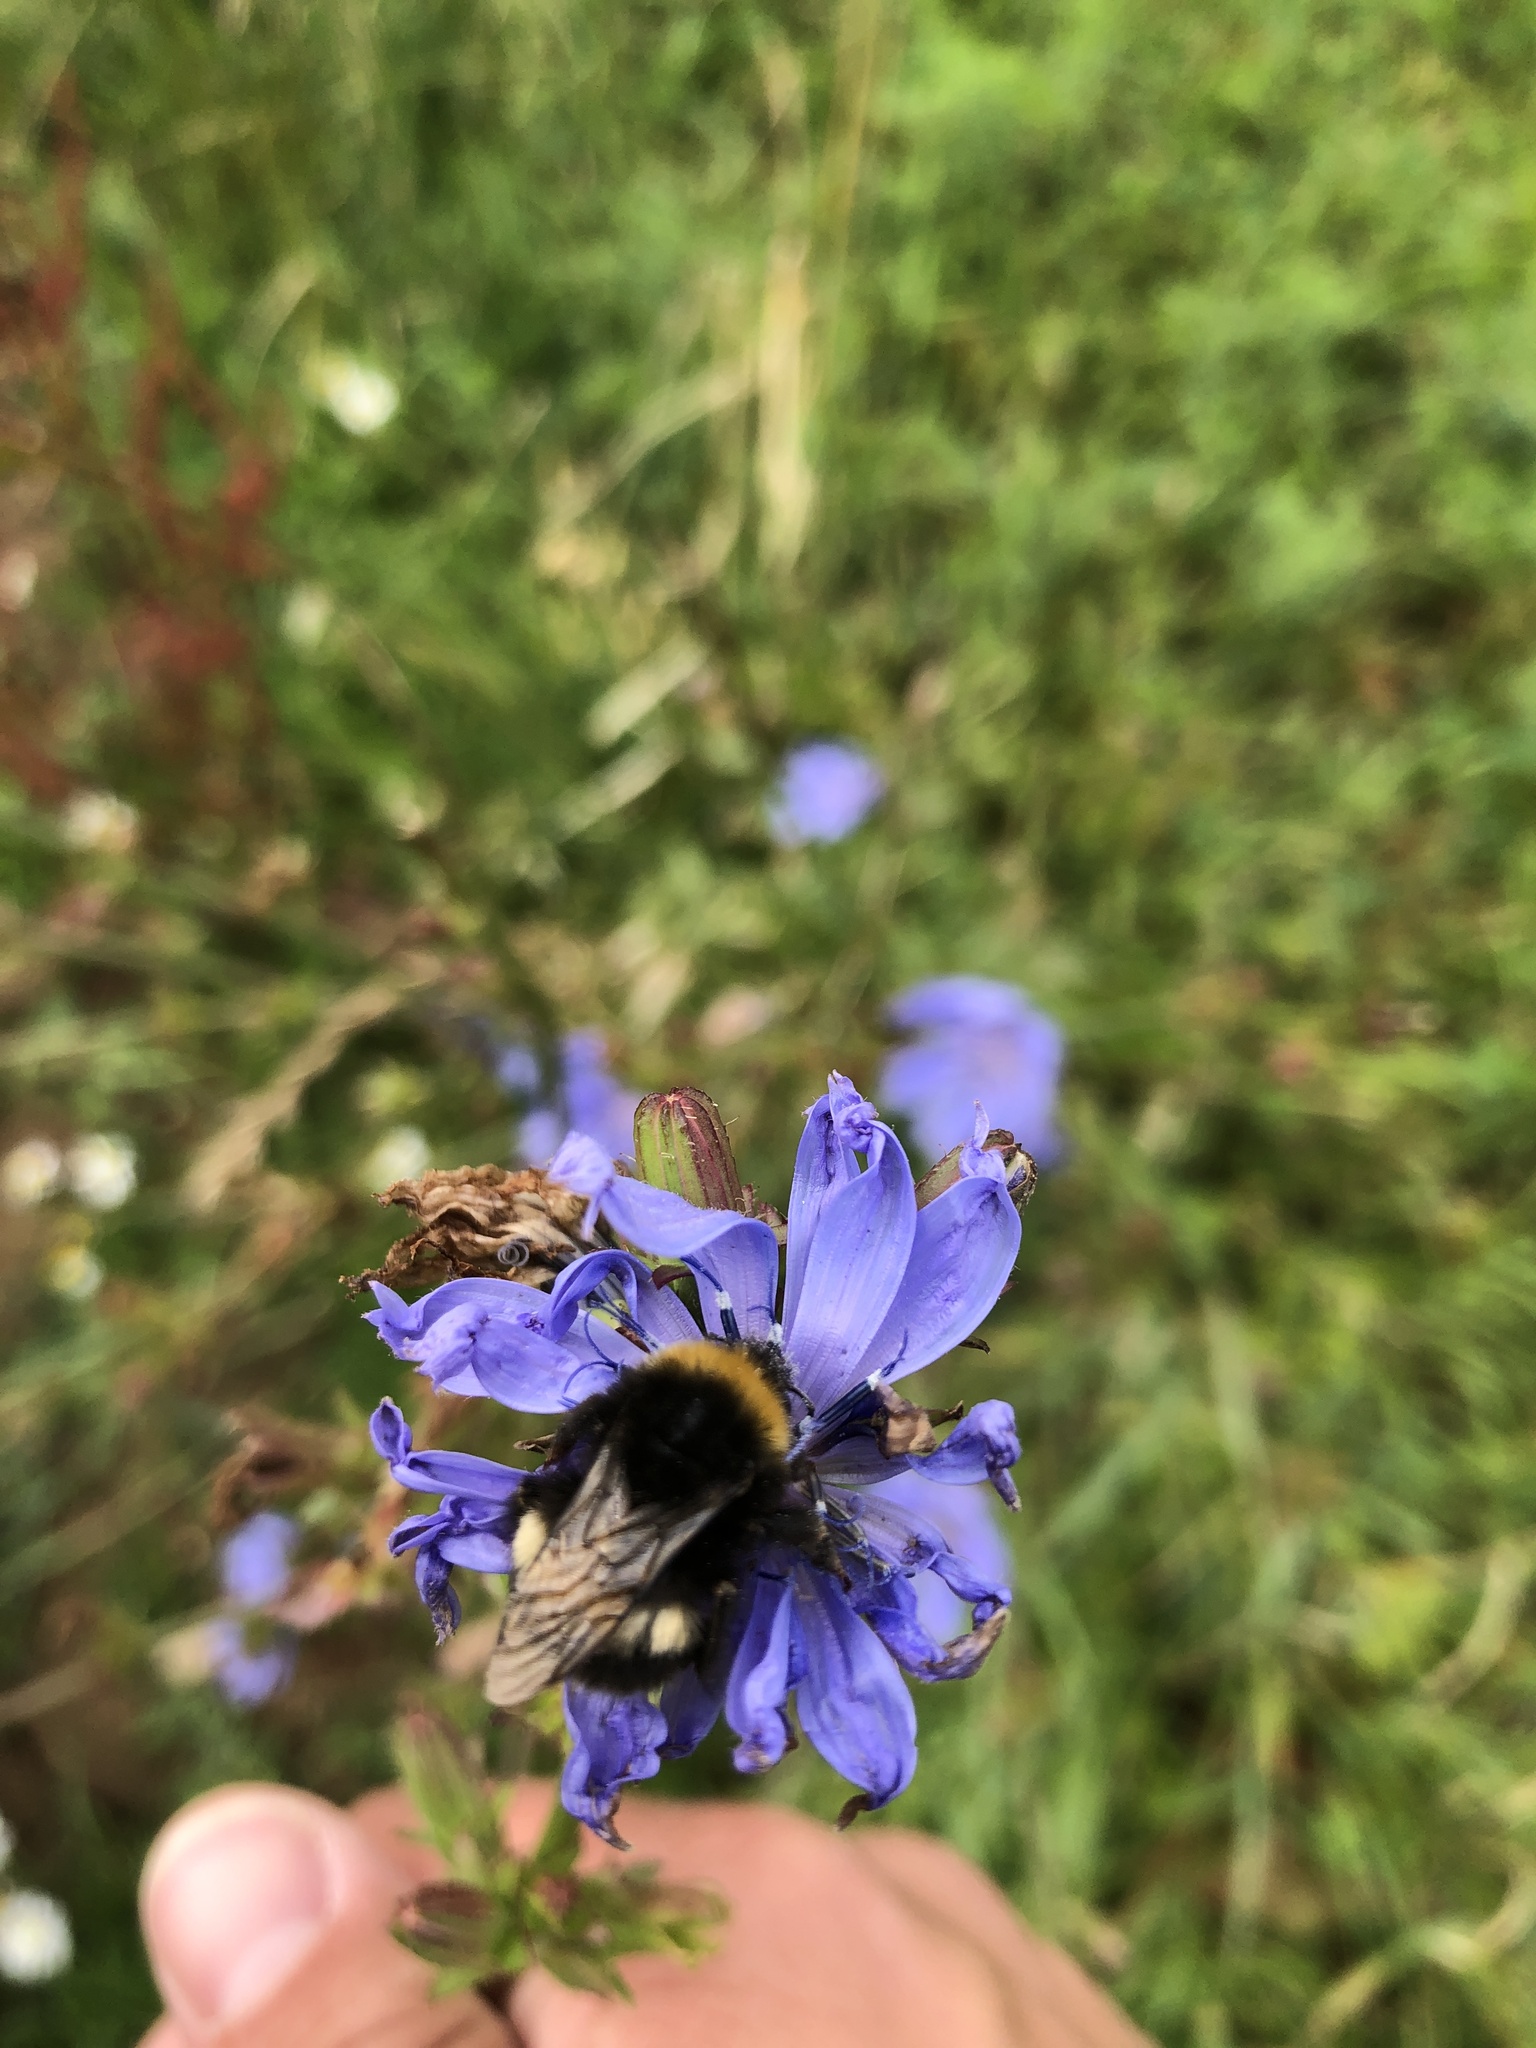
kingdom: Animalia
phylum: Arthropoda
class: Insecta
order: Hymenoptera
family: Apidae
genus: Bombus
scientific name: Bombus terrestris
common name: Buff-tailed bumblebee
